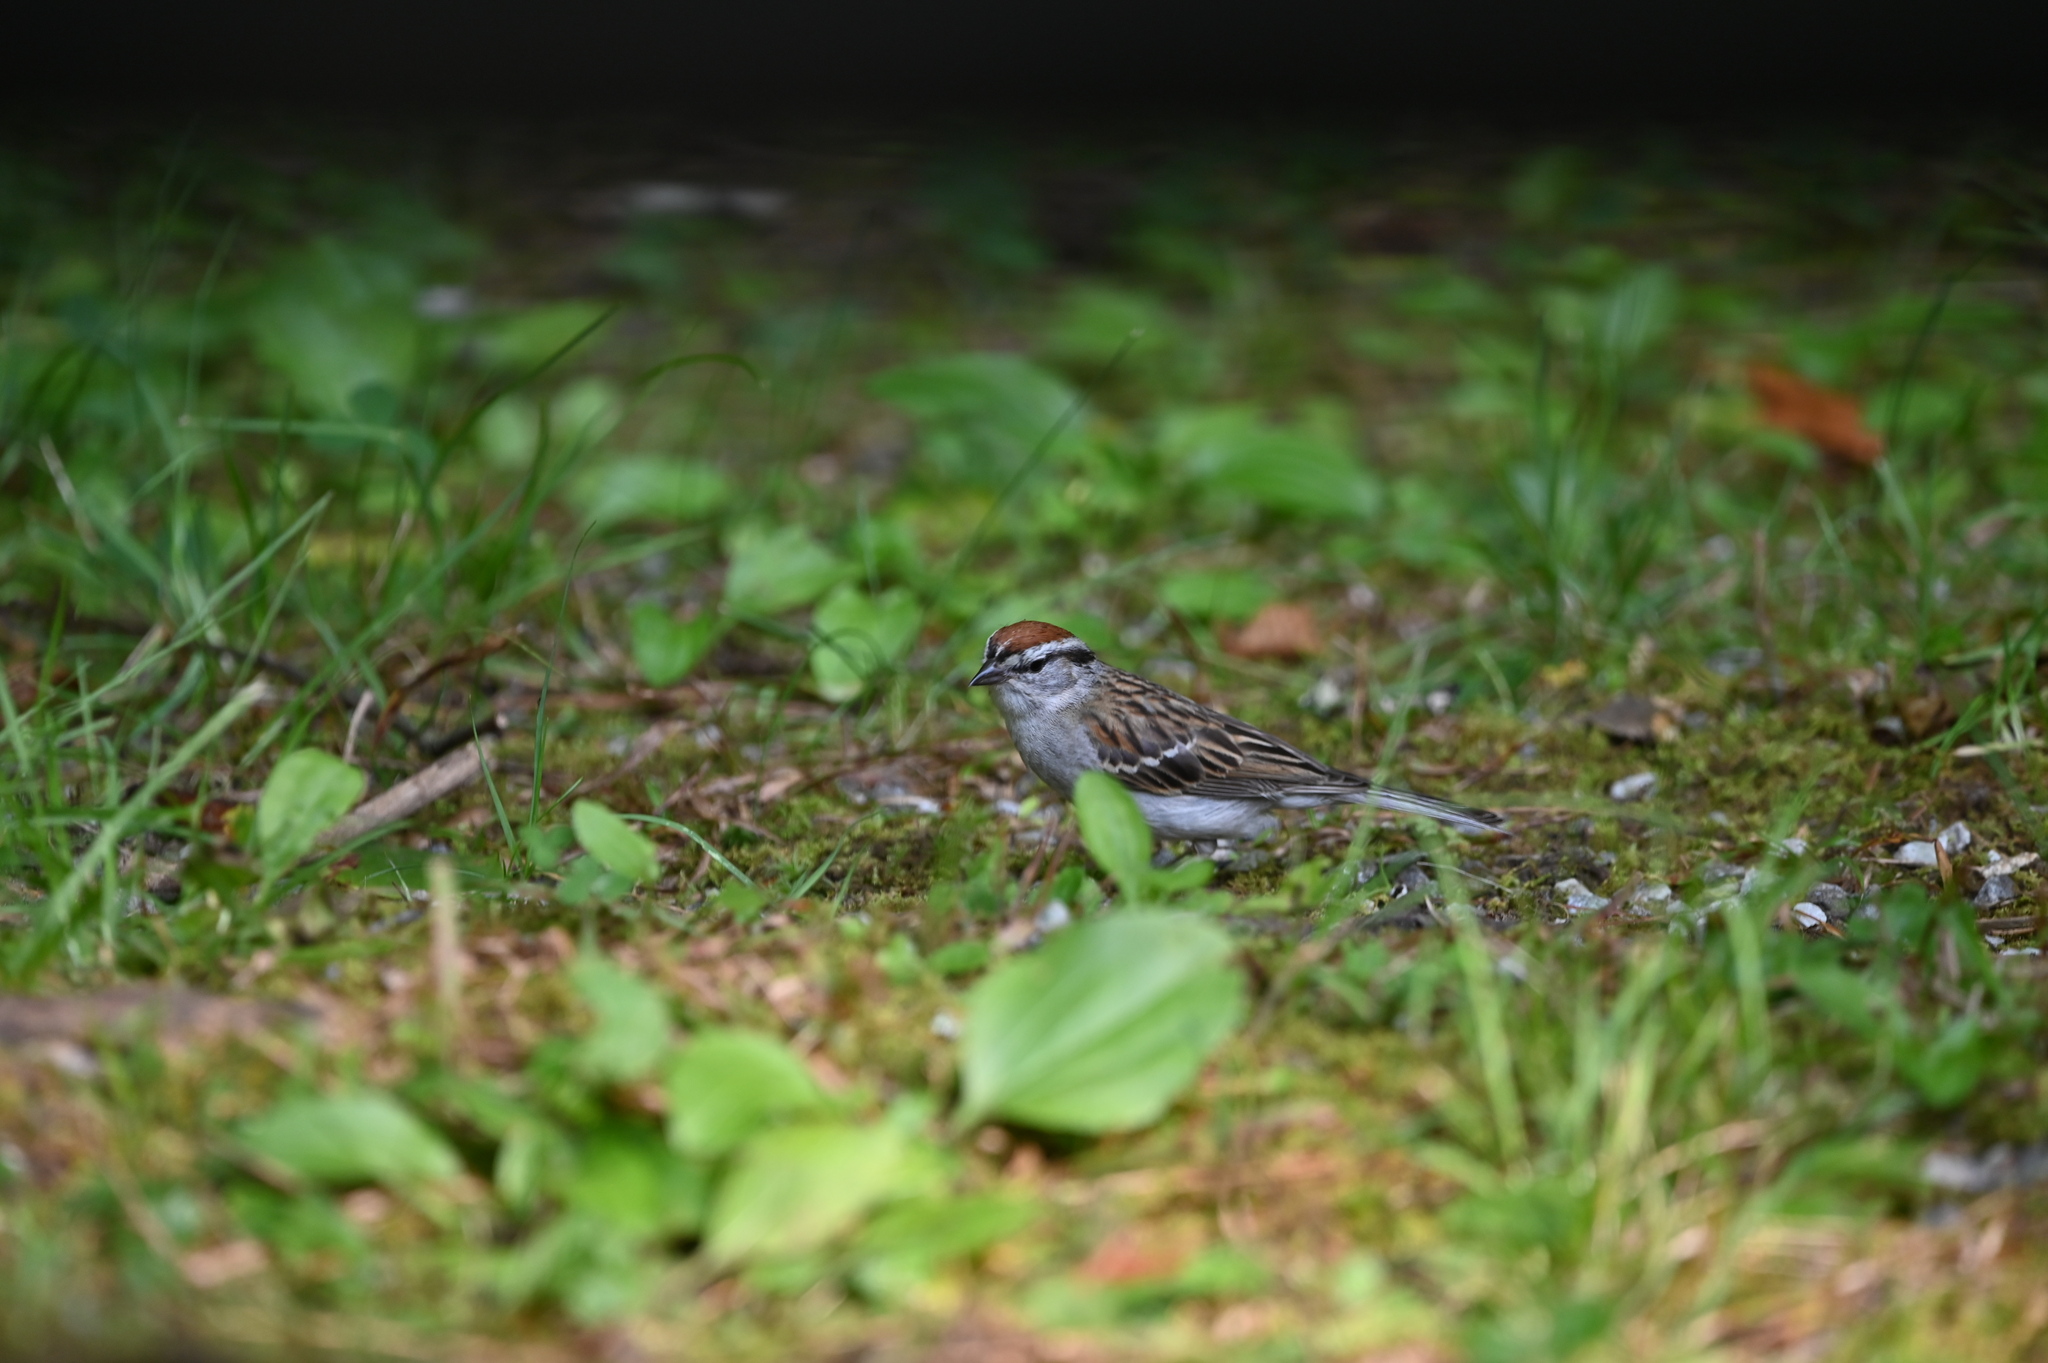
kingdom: Animalia
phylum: Chordata
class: Aves
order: Passeriformes
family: Passerellidae
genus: Spizella
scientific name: Spizella passerina
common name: Chipping sparrow
